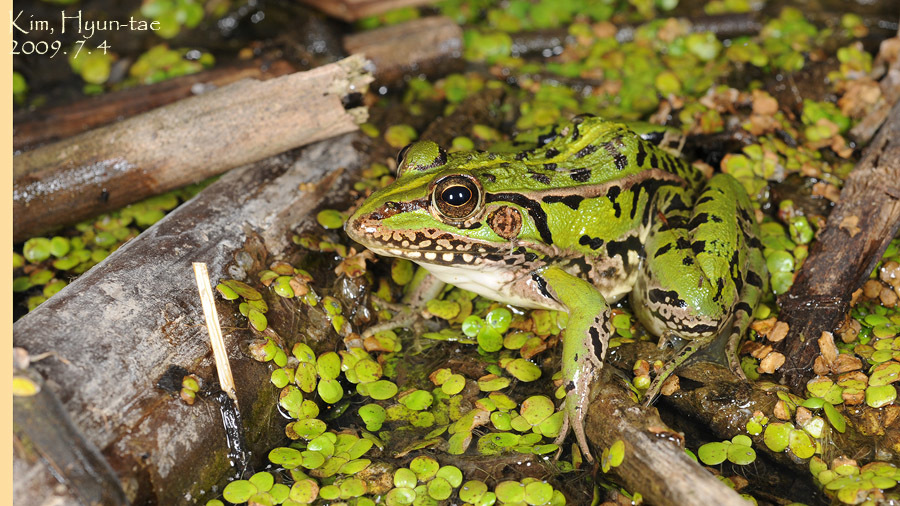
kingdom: Animalia
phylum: Chordata
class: Amphibia
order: Anura
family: Ranidae
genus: Pelophylax
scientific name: Pelophylax nigromaculatus
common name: Black-spotted pond frog
